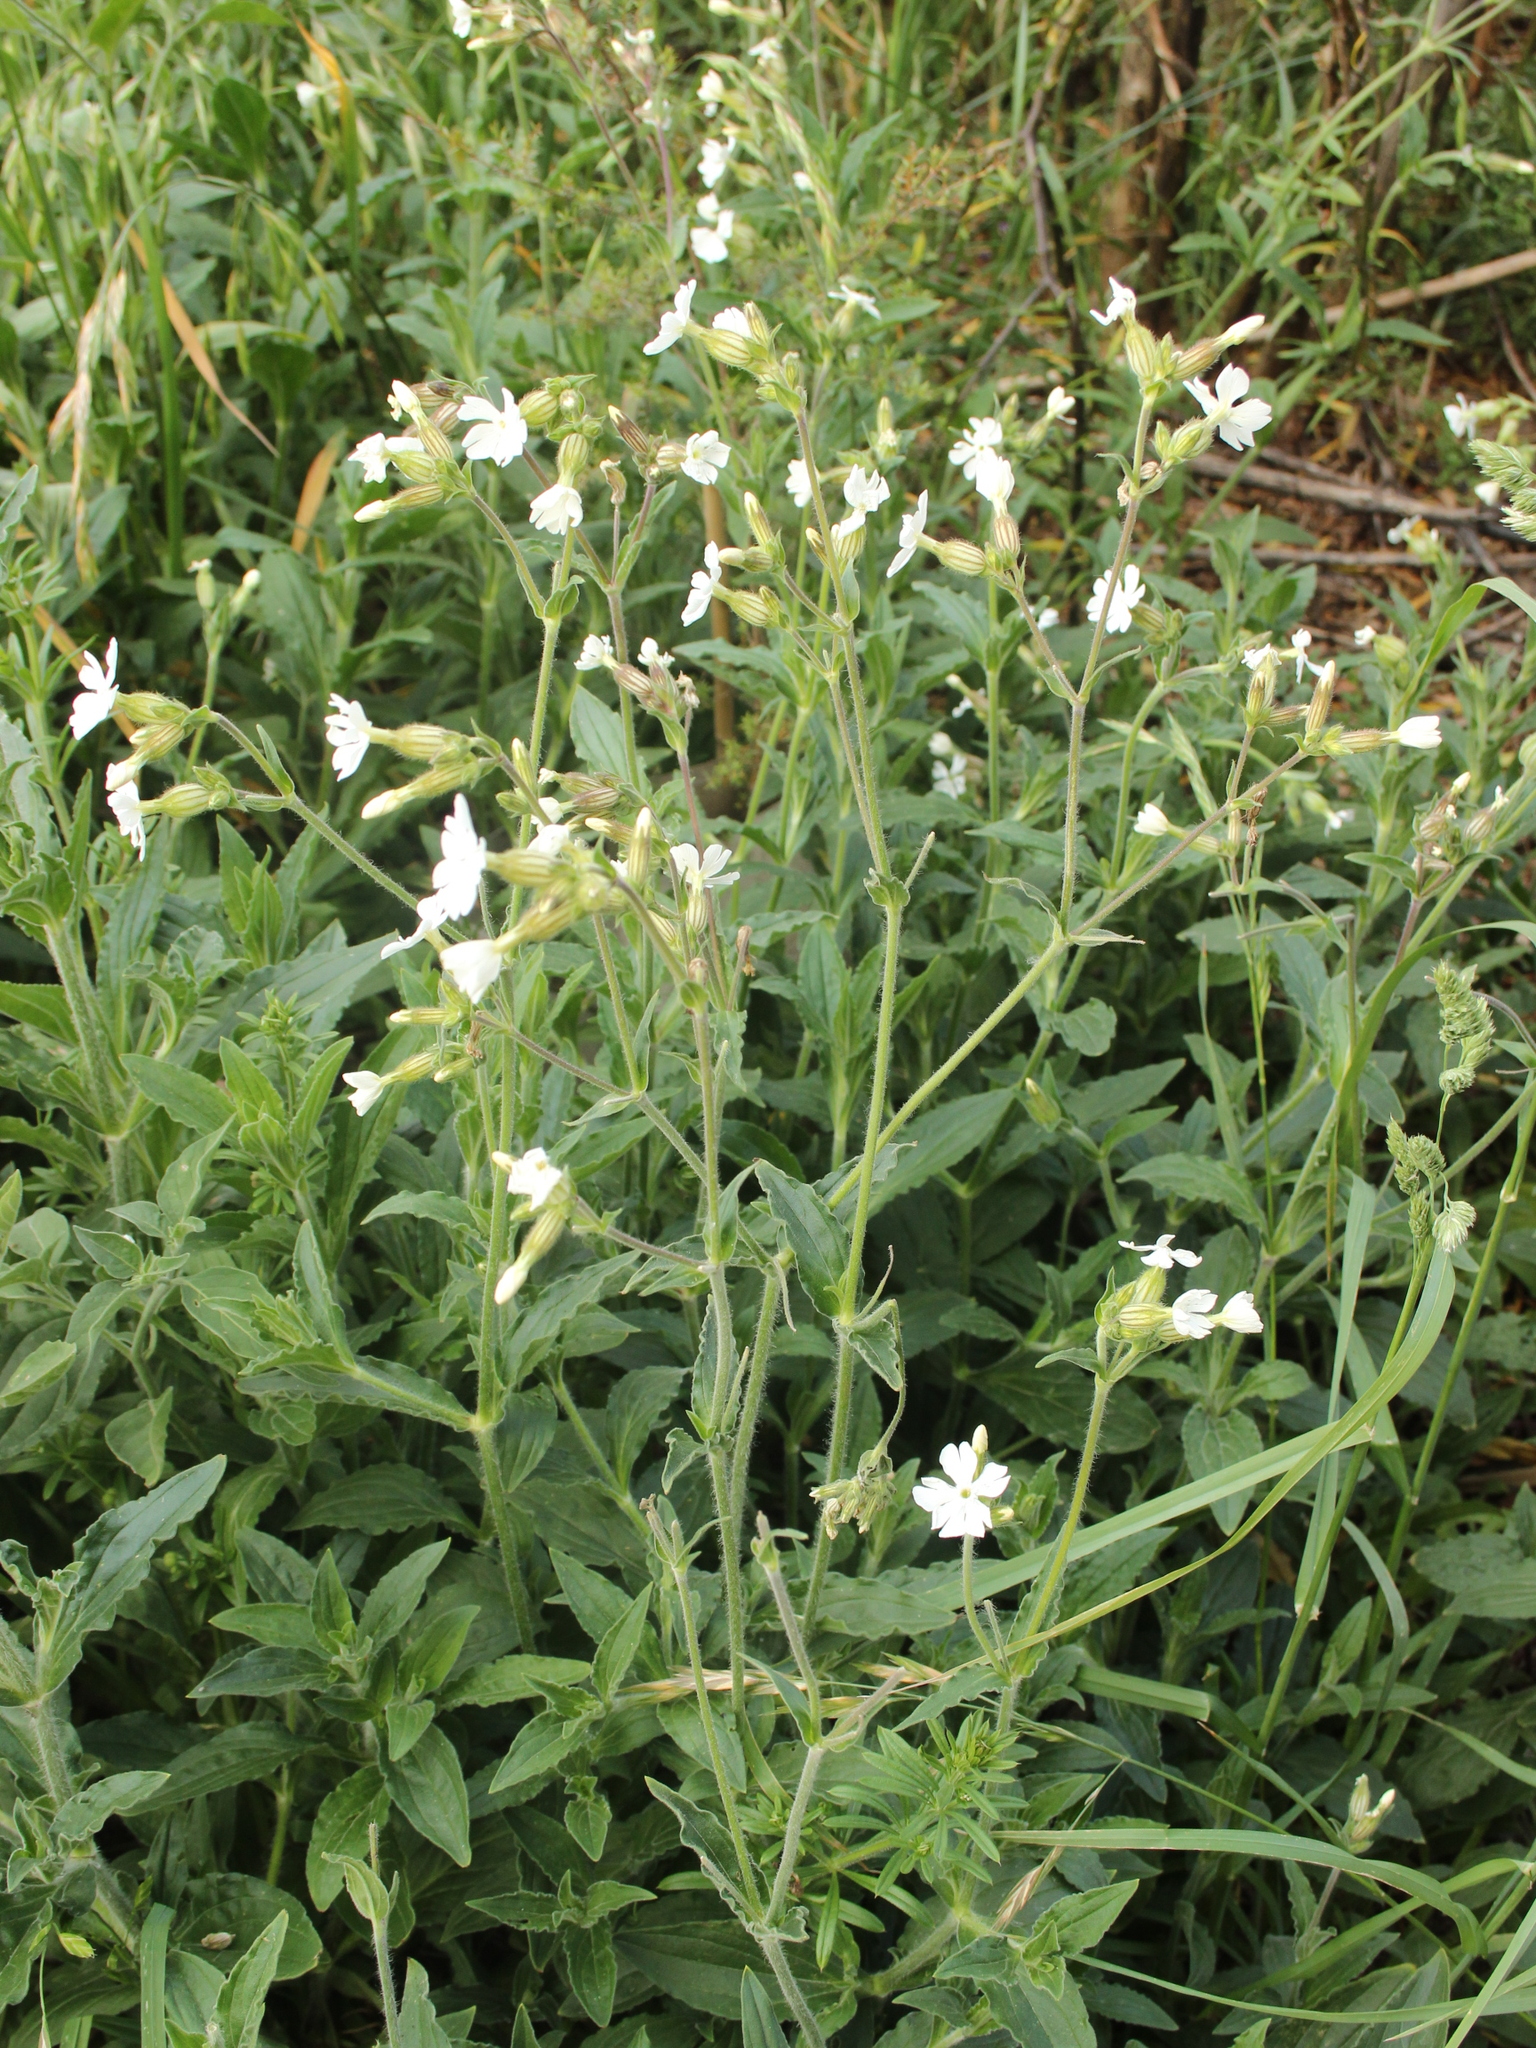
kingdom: Plantae
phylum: Tracheophyta
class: Magnoliopsida
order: Caryophyllales
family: Caryophyllaceae
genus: Silene
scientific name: Silene latifolia
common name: White campion
